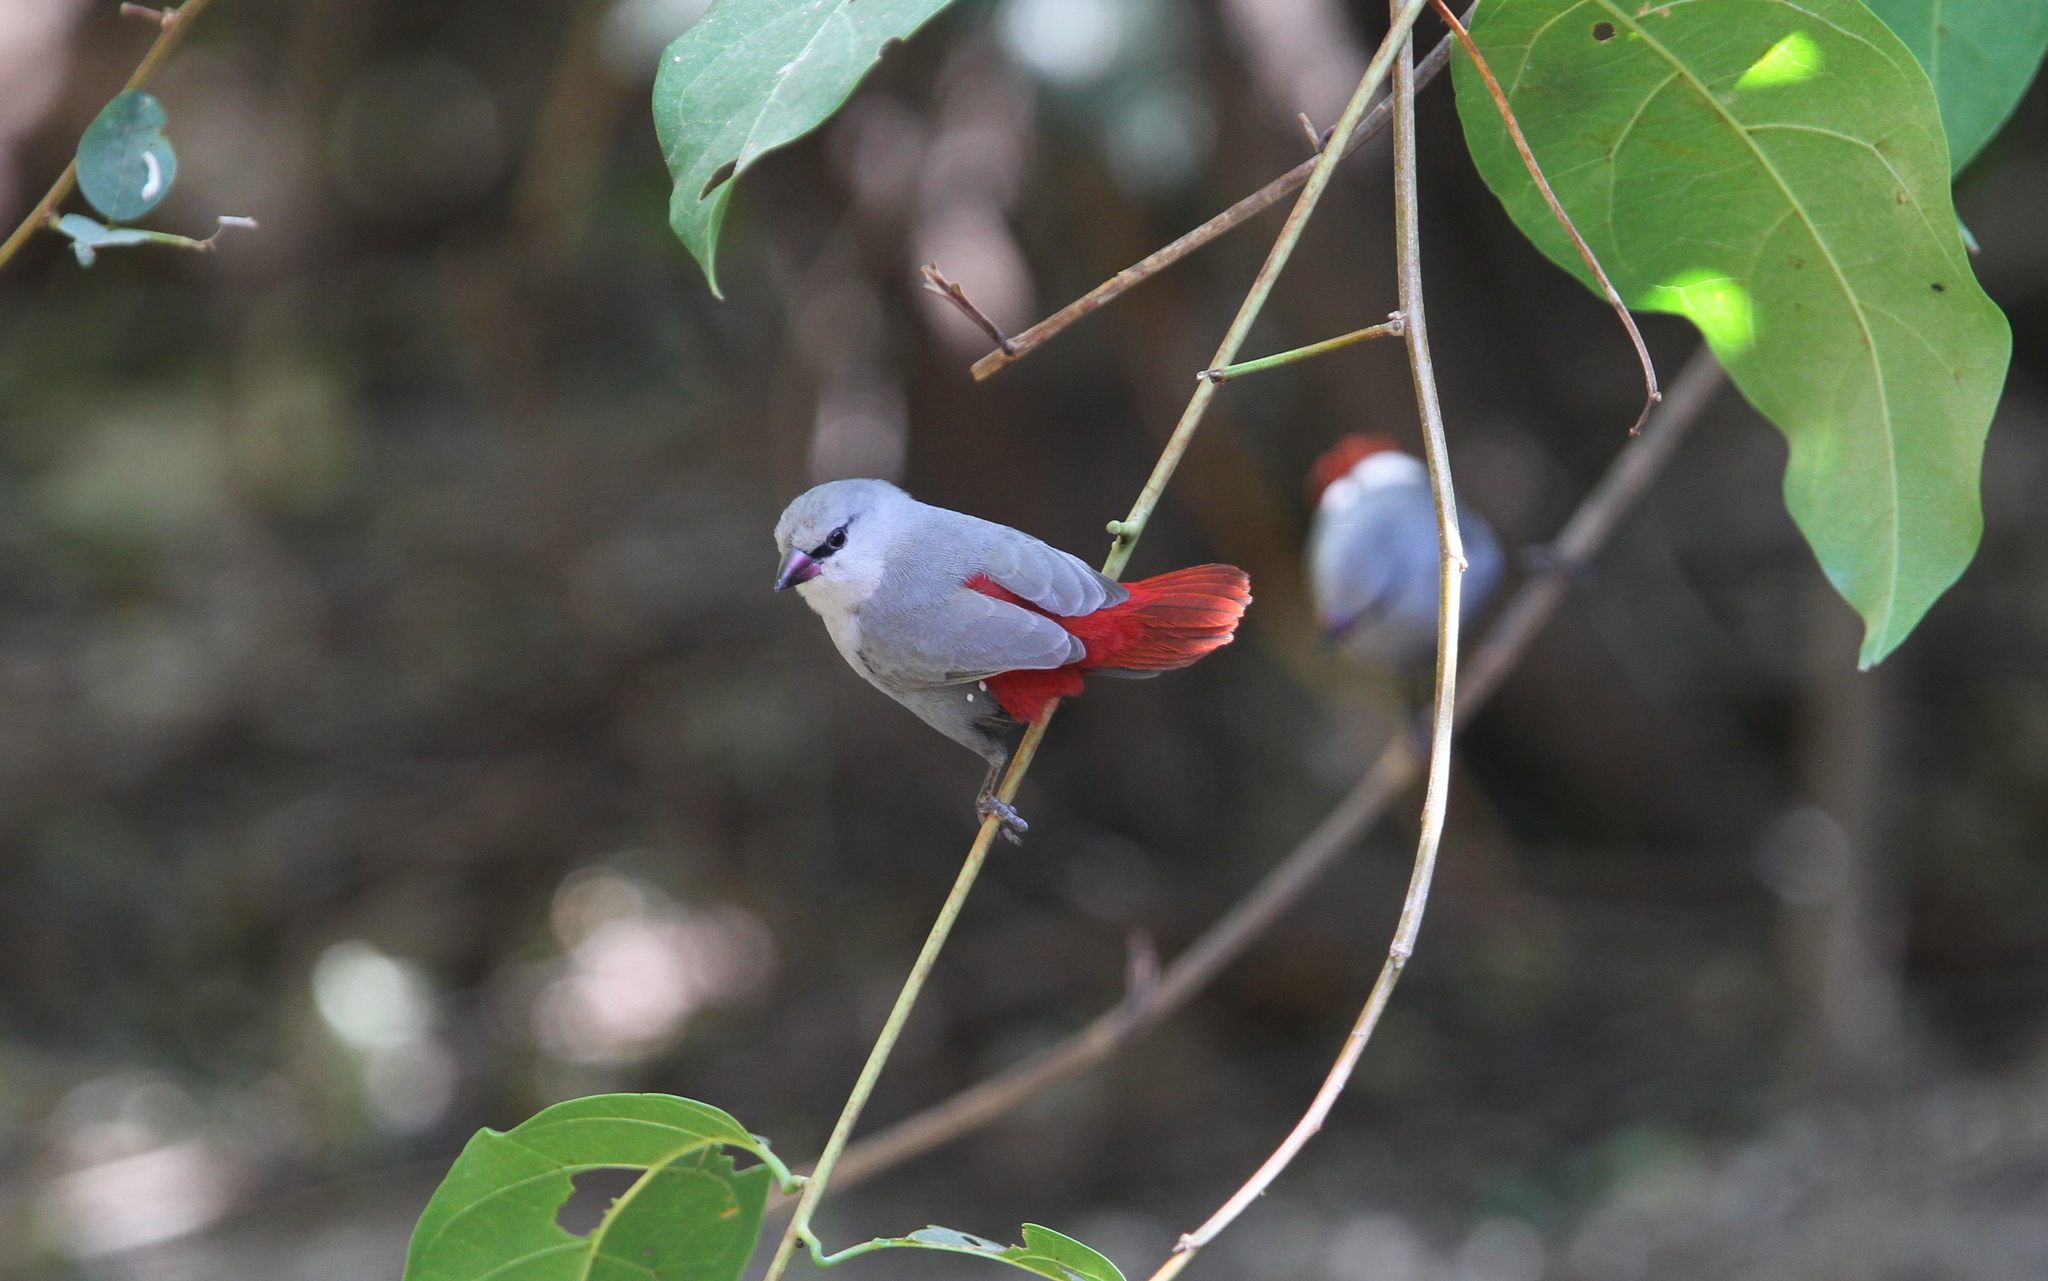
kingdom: Animalia
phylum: Chordata
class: Aves
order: Passeriformes
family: Estrildidae
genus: Estrilda
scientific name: Estrilda caerulescens
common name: Lavender waxbill
